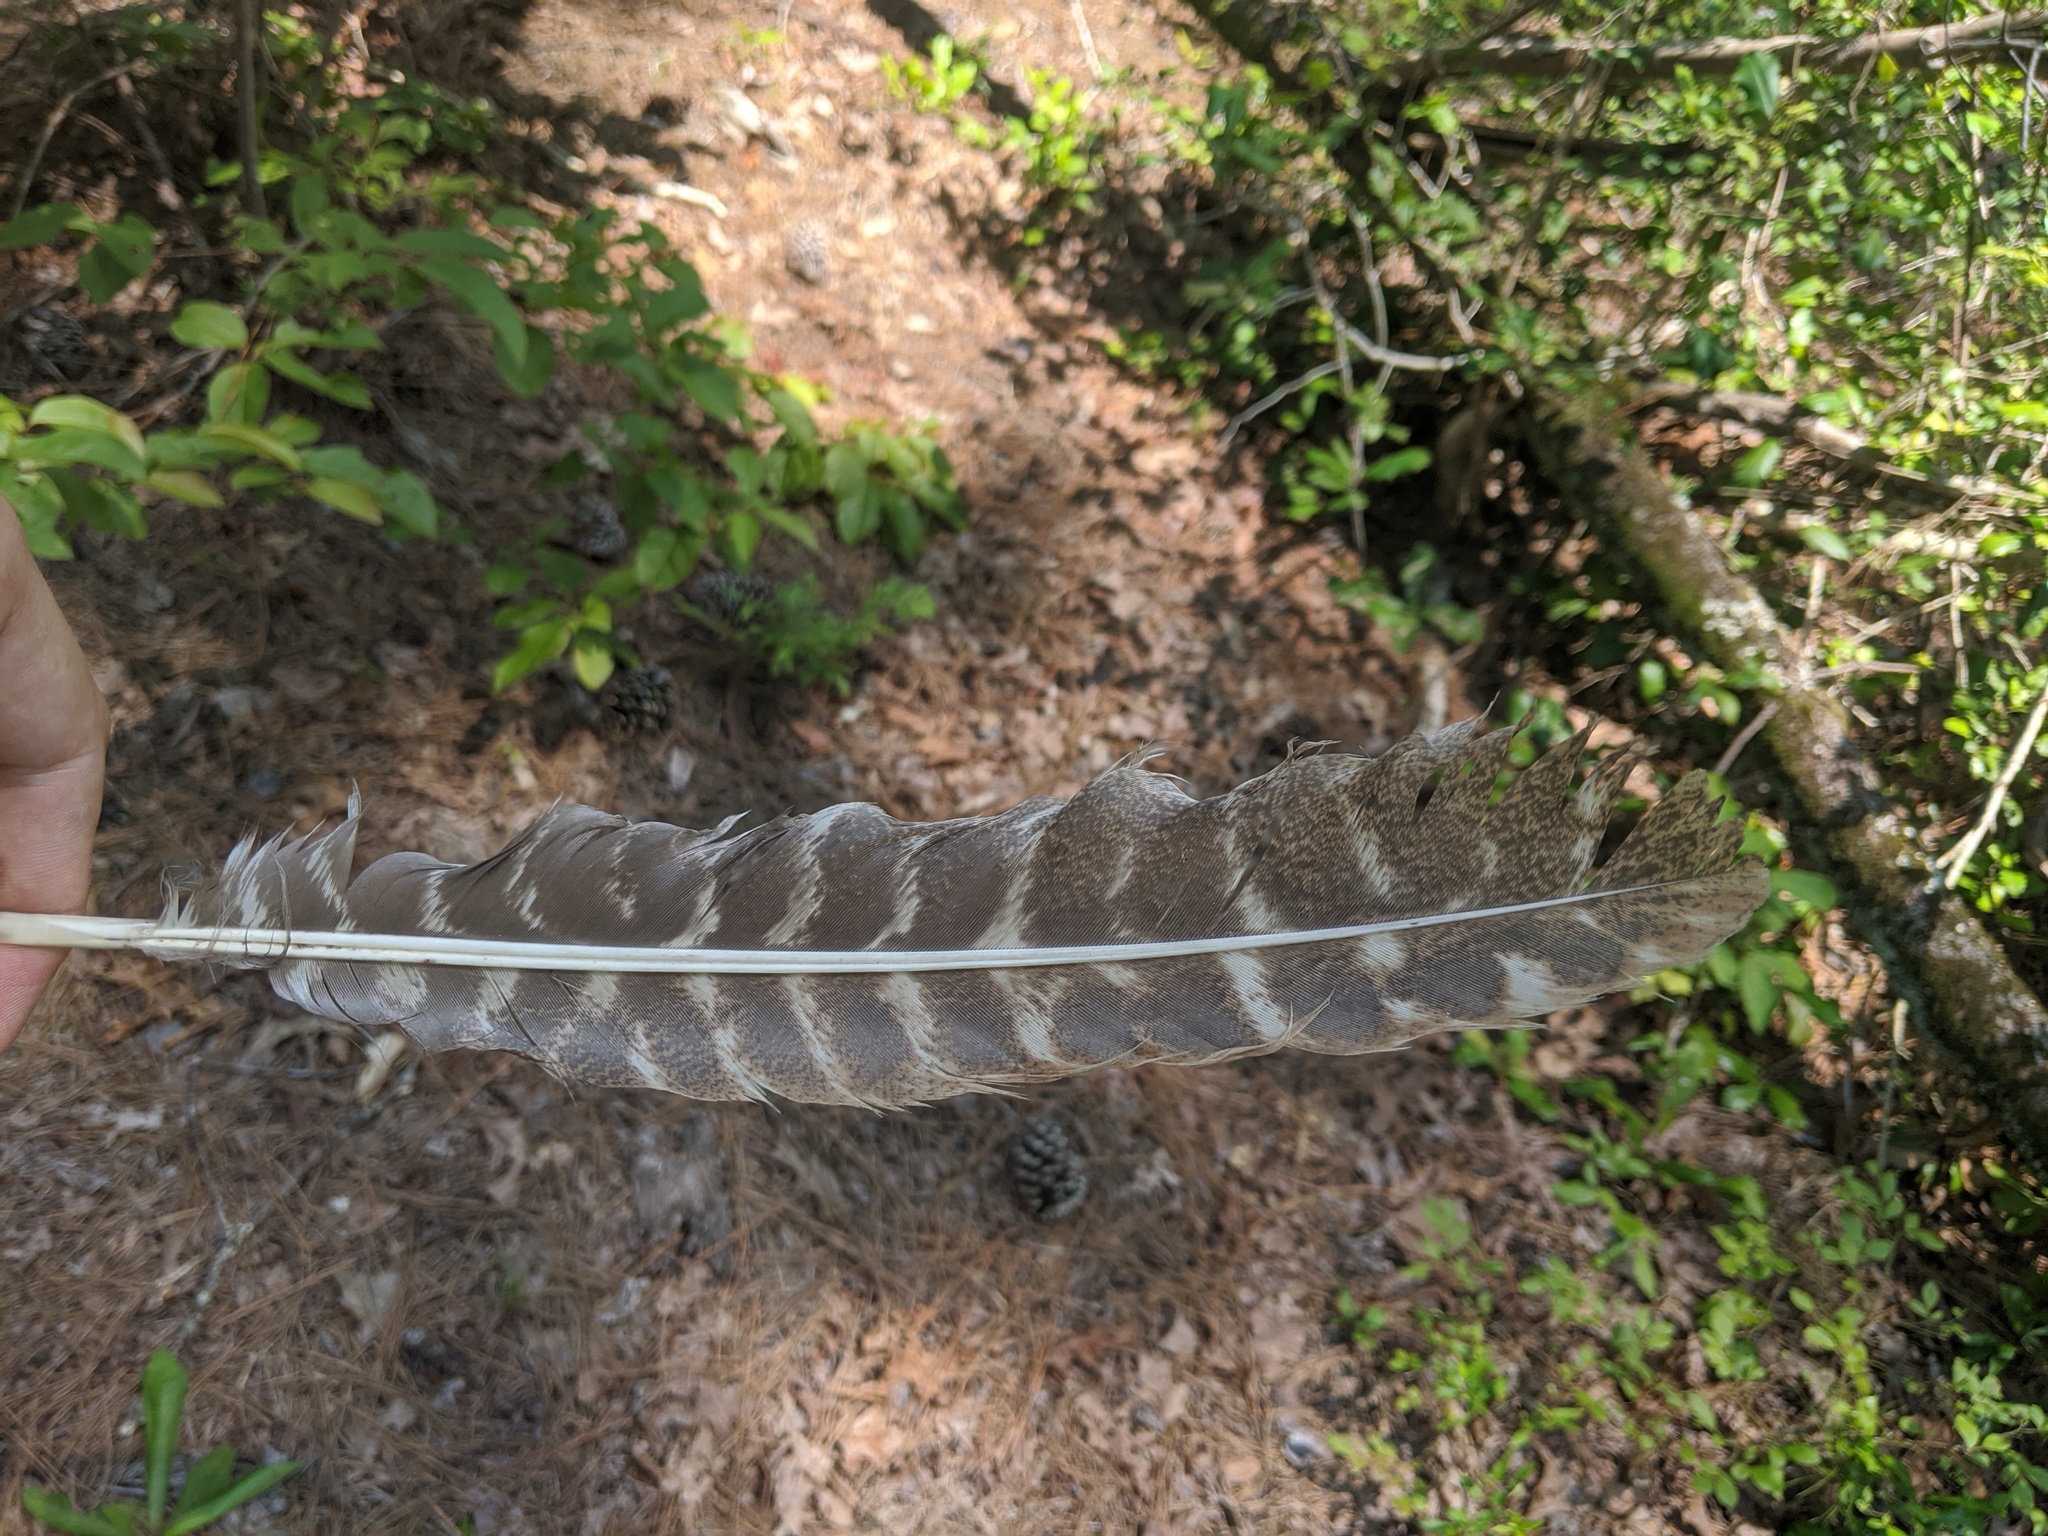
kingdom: Animalia
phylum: Chordata
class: Aves
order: Galliformes
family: Phasianidae
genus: Meleagris
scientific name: Meleagris gallopavo
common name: Wild turkey
